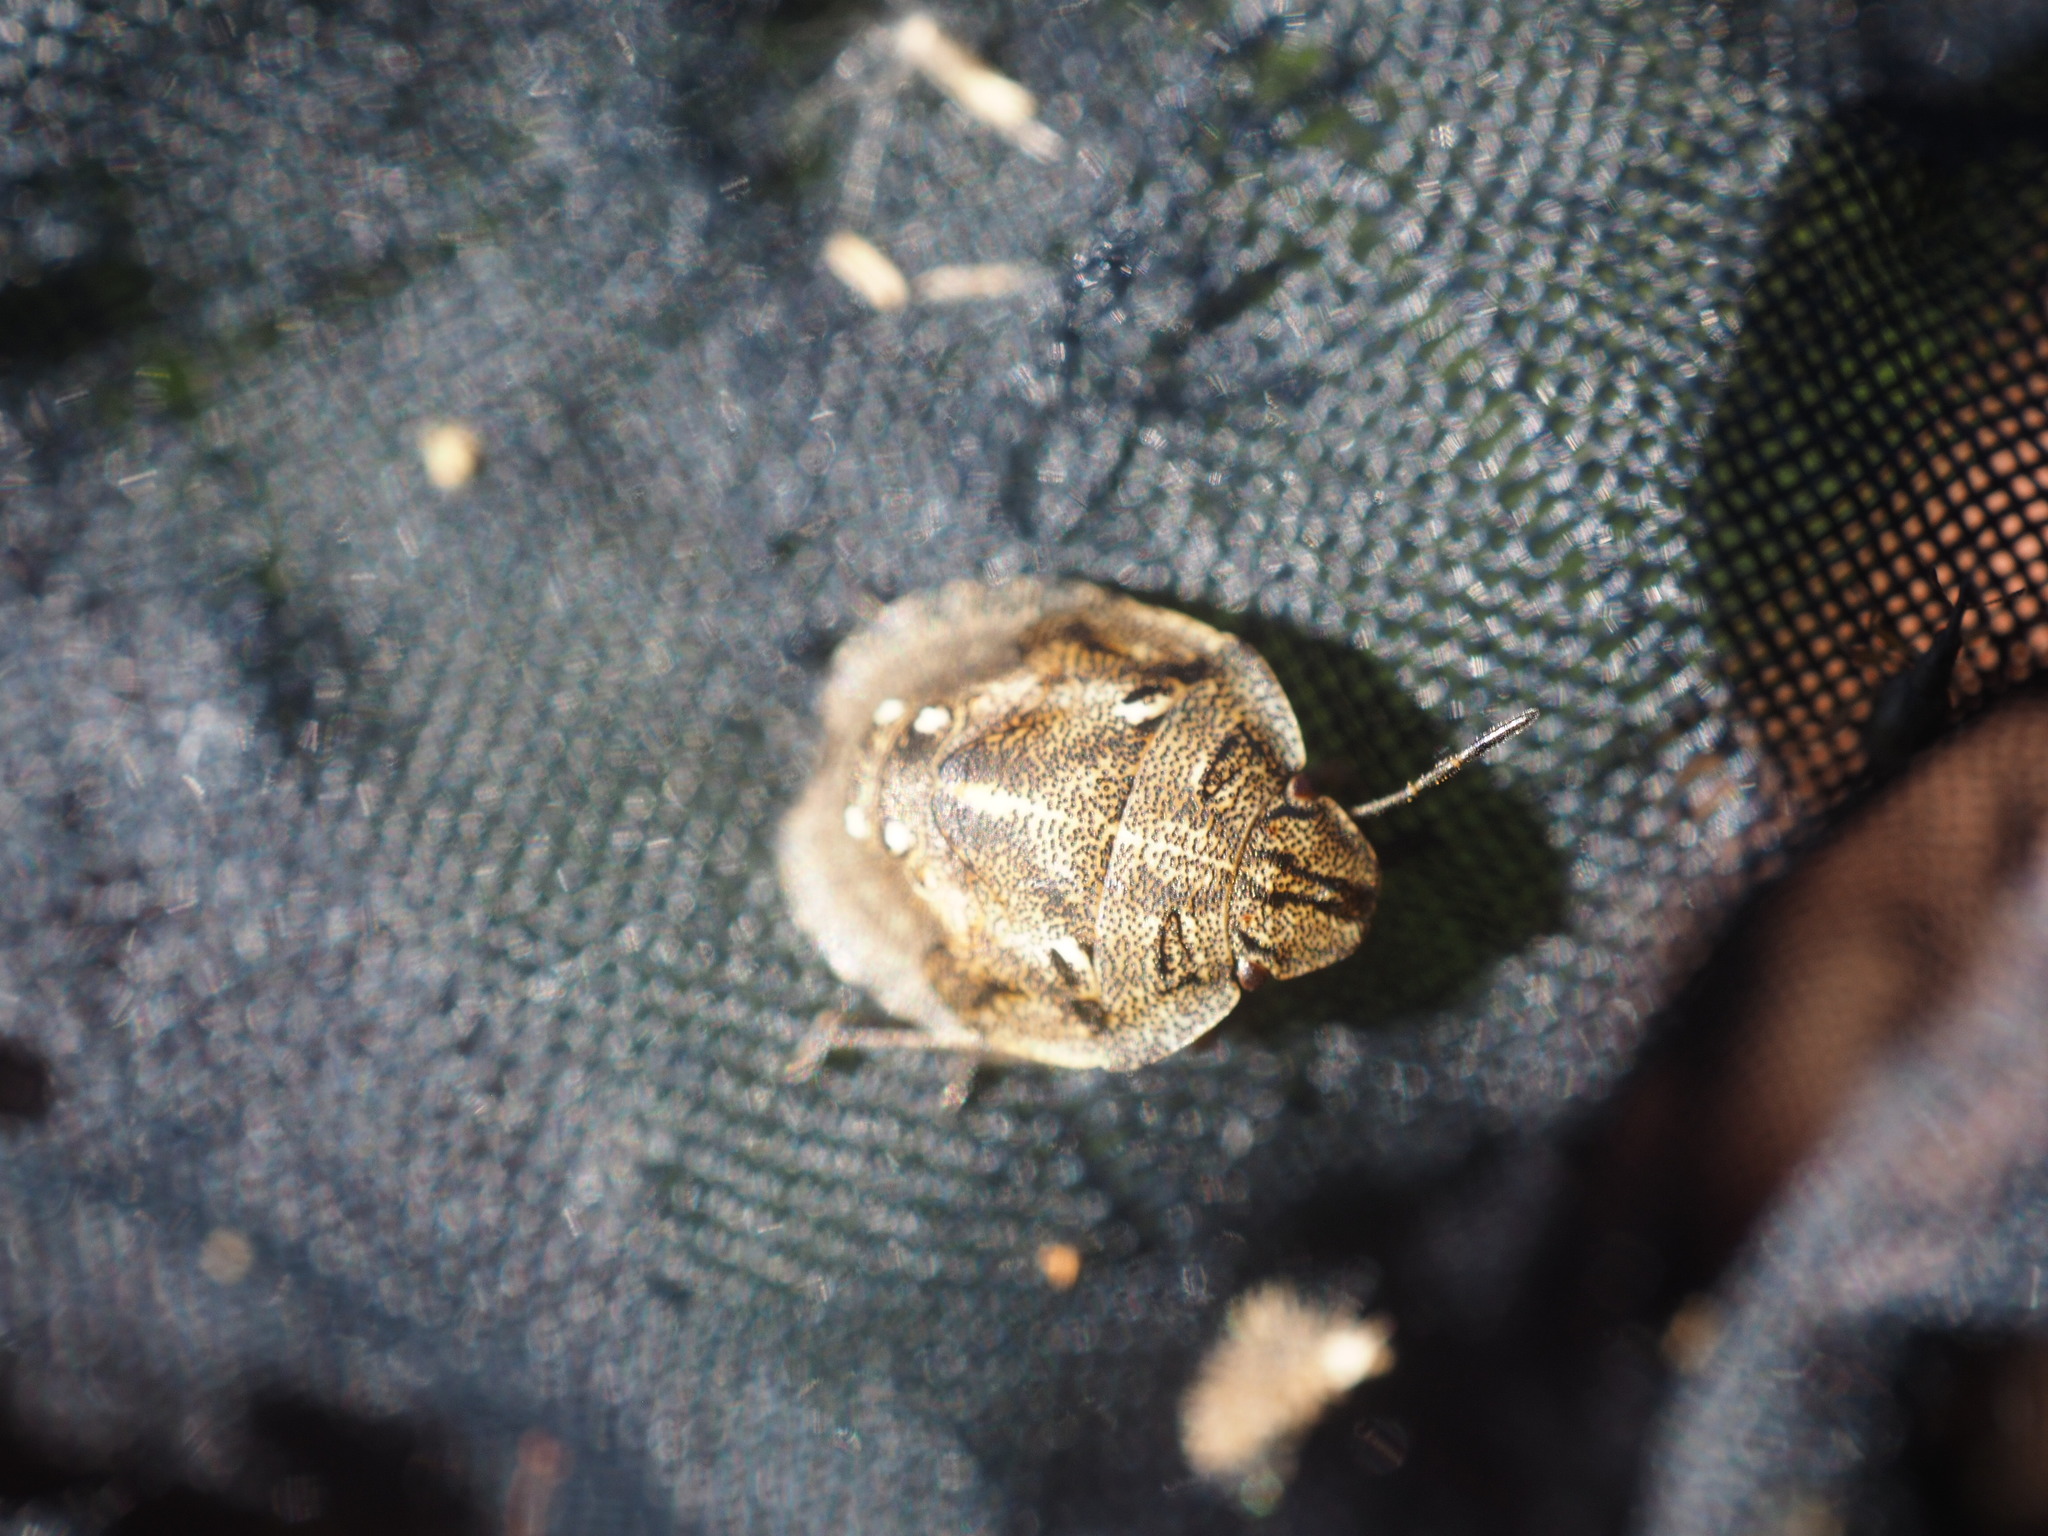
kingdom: Animalia
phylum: Arthropoda
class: Insecta
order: Hemiptera
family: Scutelleridae
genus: Eurygaster
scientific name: Eurygaster testudinaria
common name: Tortoise bug
